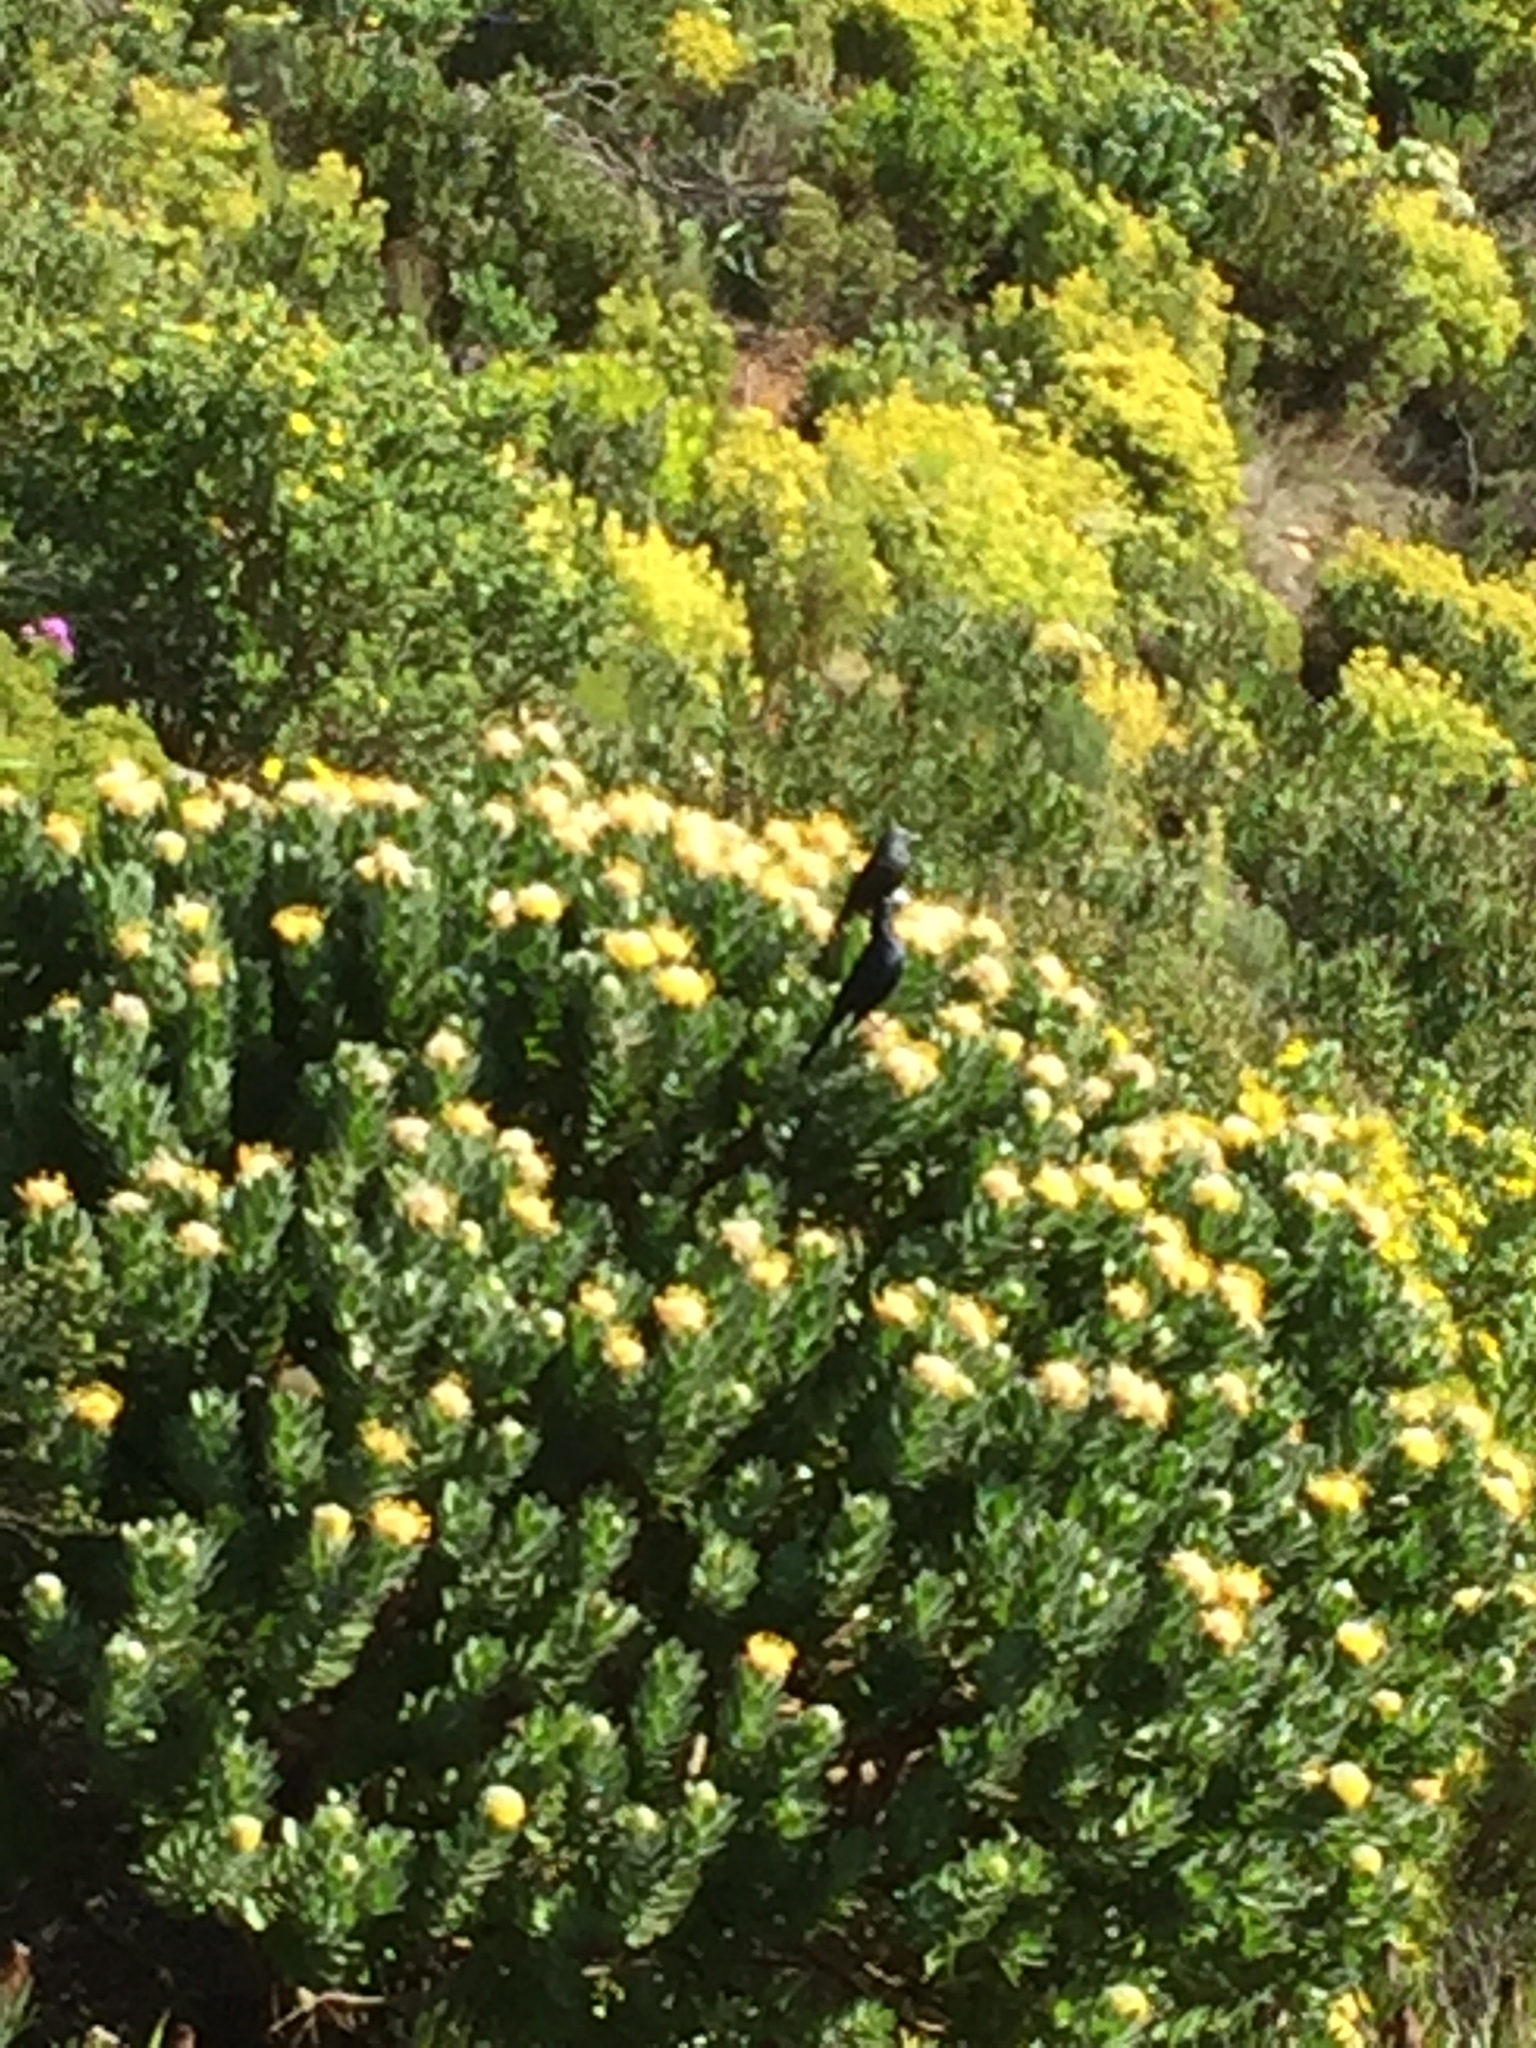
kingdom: Plantae
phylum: Tracheophyta
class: Magnoliopsida
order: Proteales
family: Proteaceae
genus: Leucospermum
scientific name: Leucospermum conocarpodendron
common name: Tree pincushion
